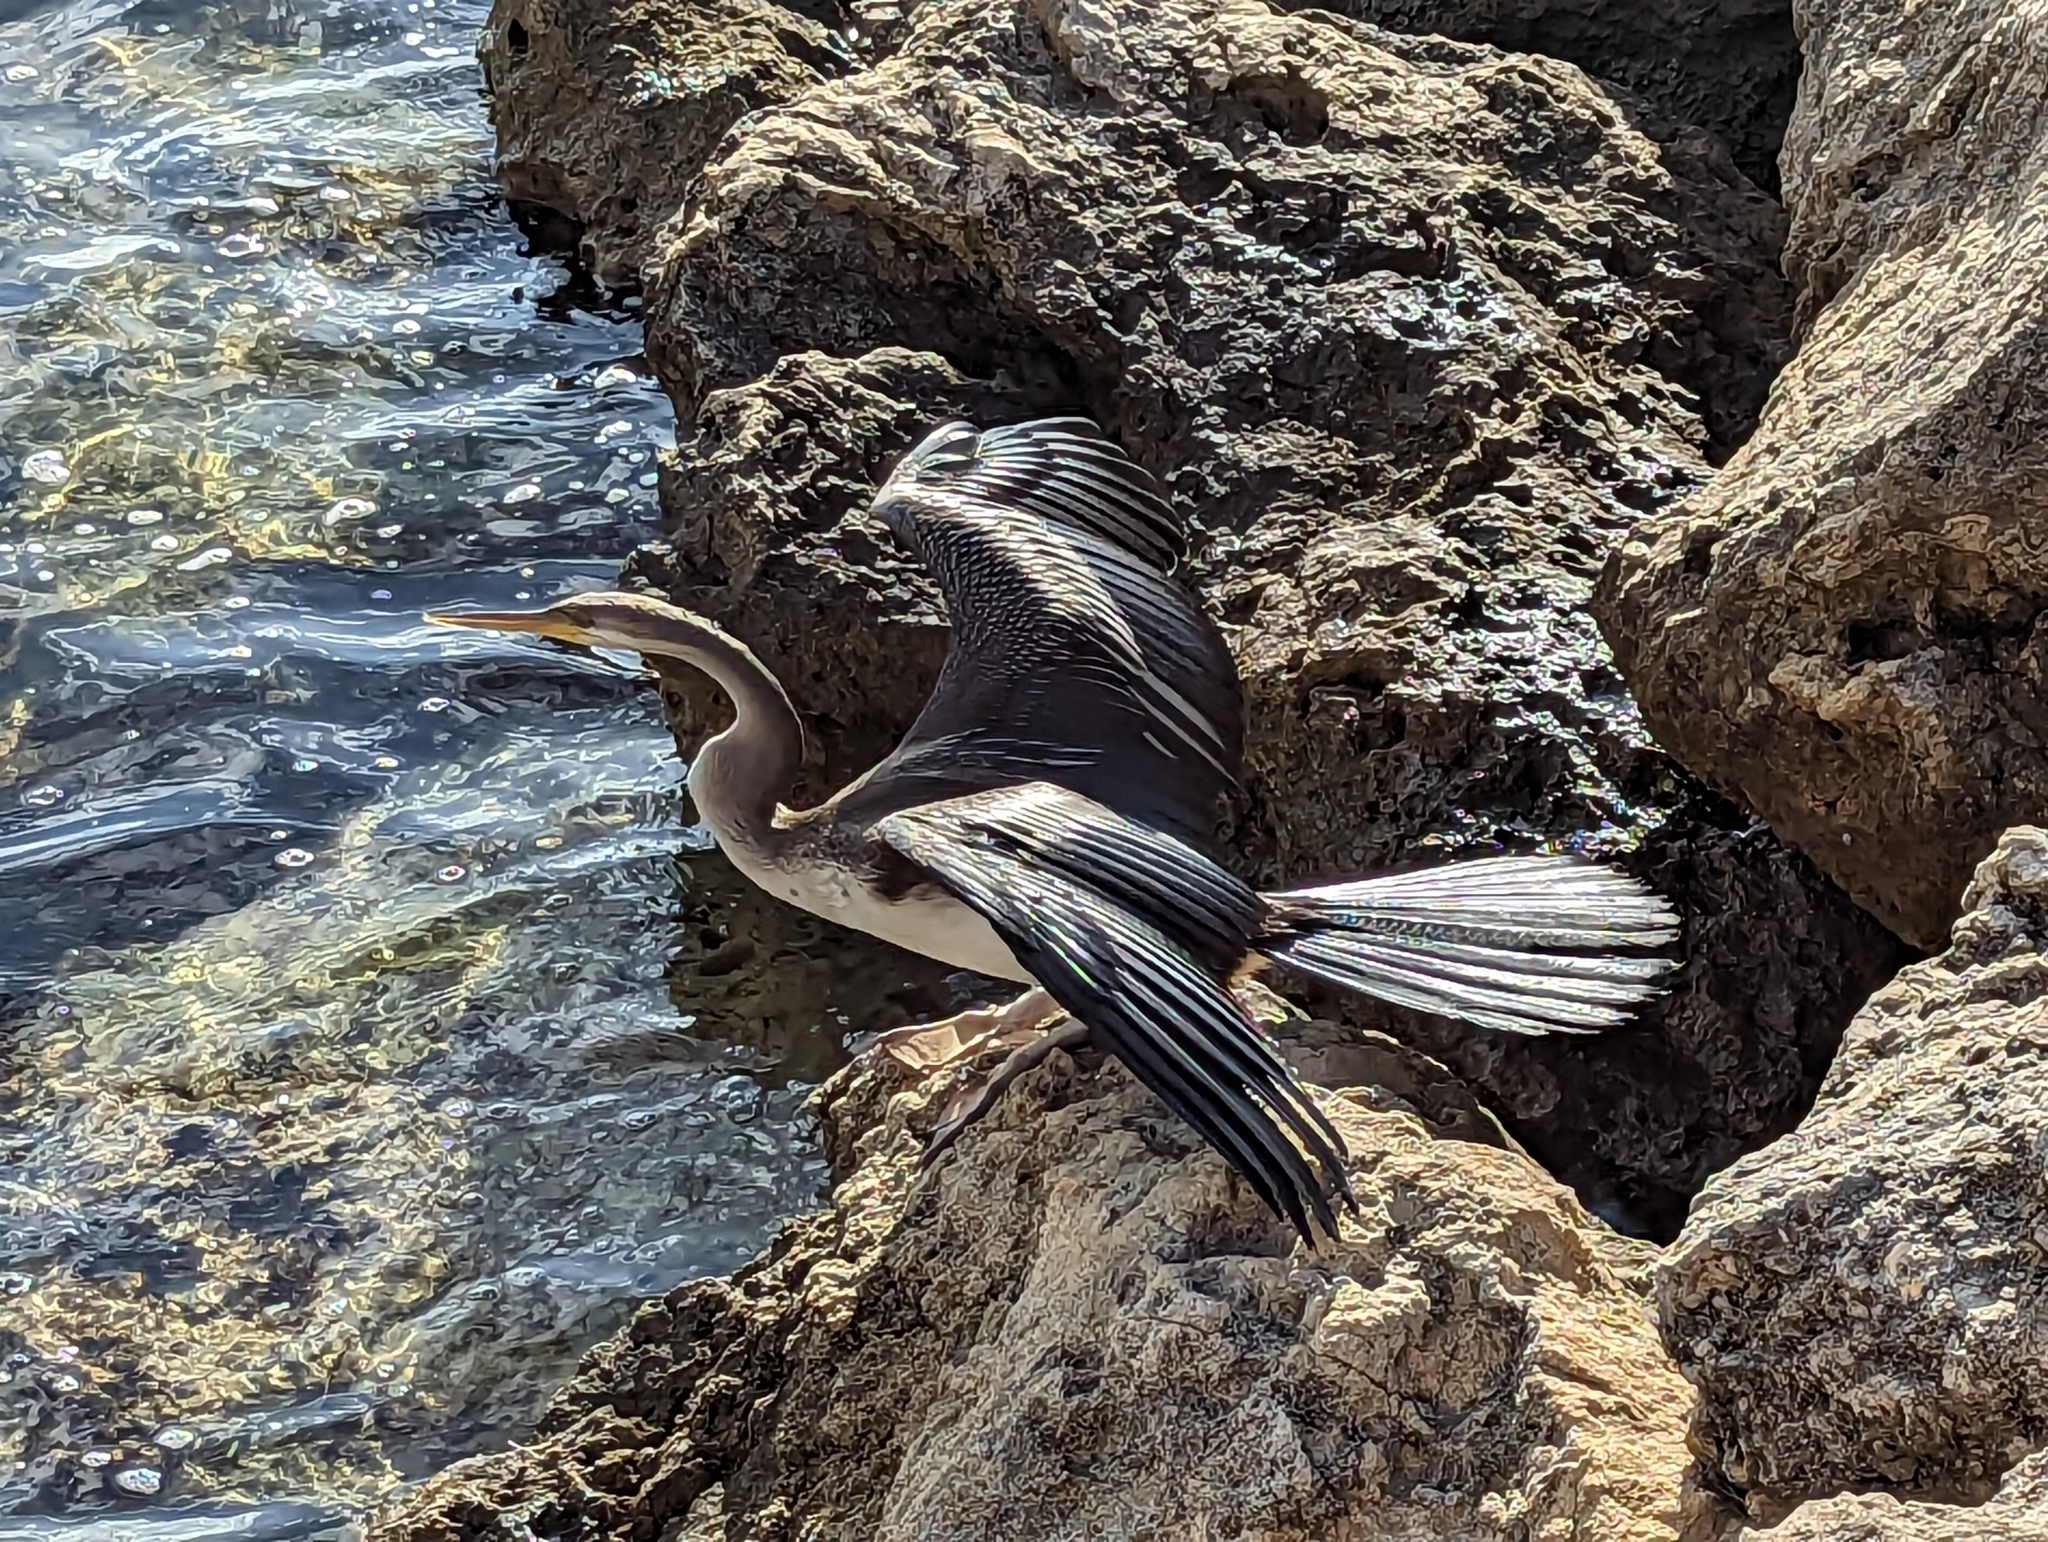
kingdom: Animalia
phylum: Chordata
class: Aves
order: Suliformes
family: Anhingidae
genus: Anhinga
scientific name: Anhinga novaehollandiae
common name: Australasian darter
